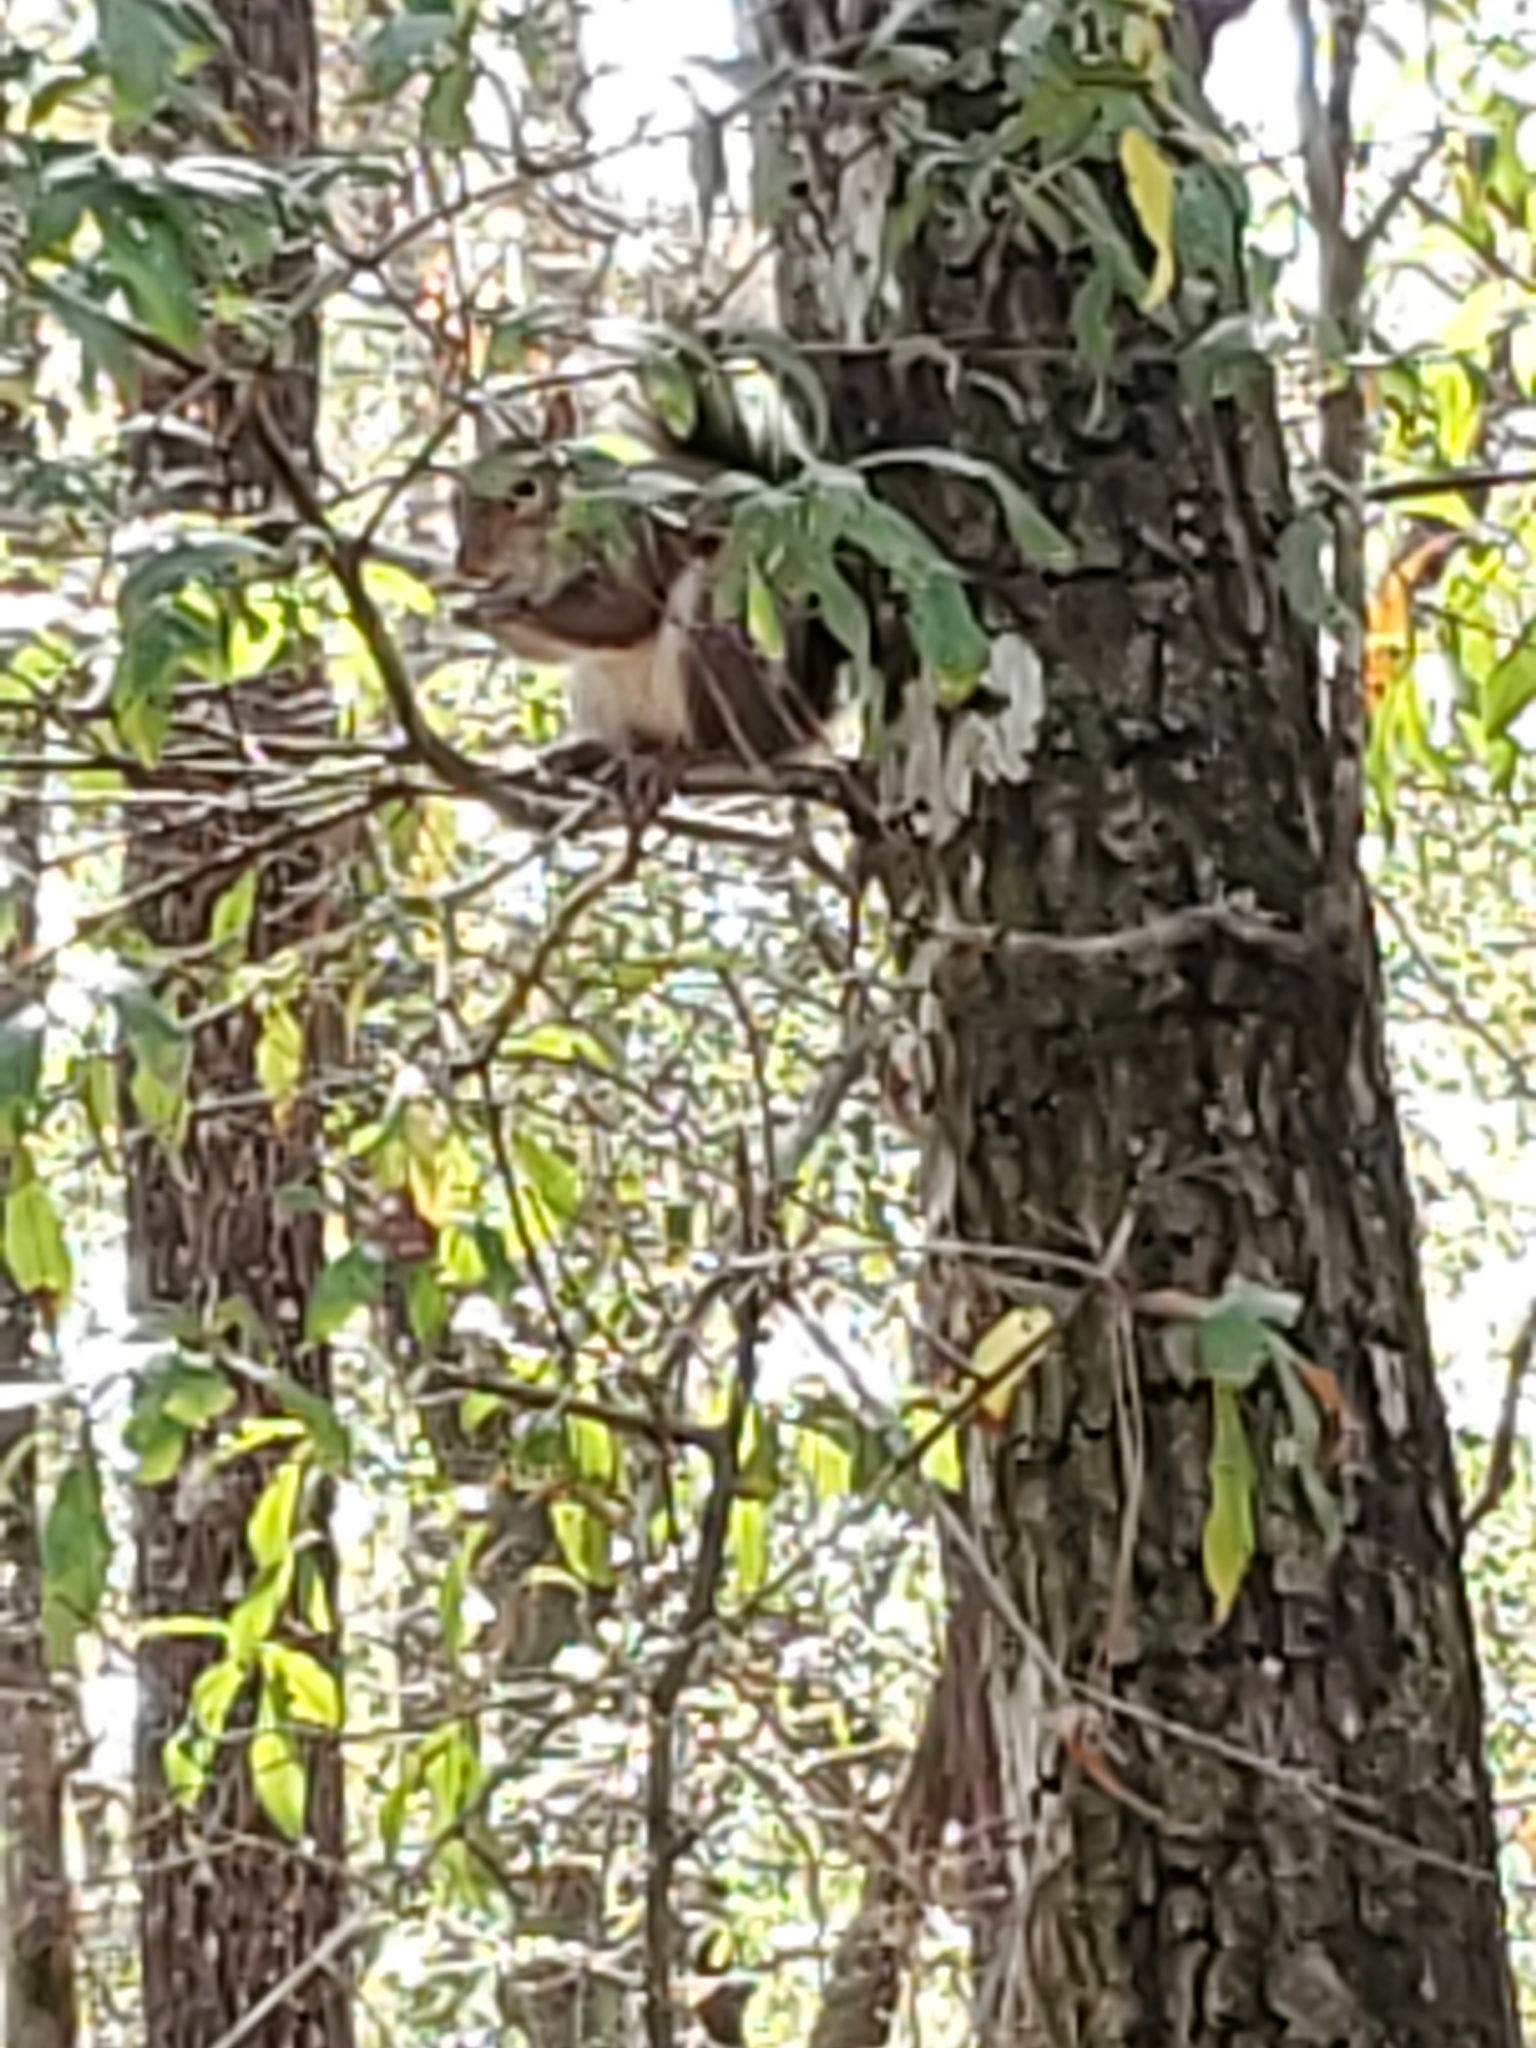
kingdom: Animalia
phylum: Chordata
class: Mammalia
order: Rodentia
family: Sciuridae
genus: Sciurus
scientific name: Sciurus carolinensis
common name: Eastern gray squirrel
